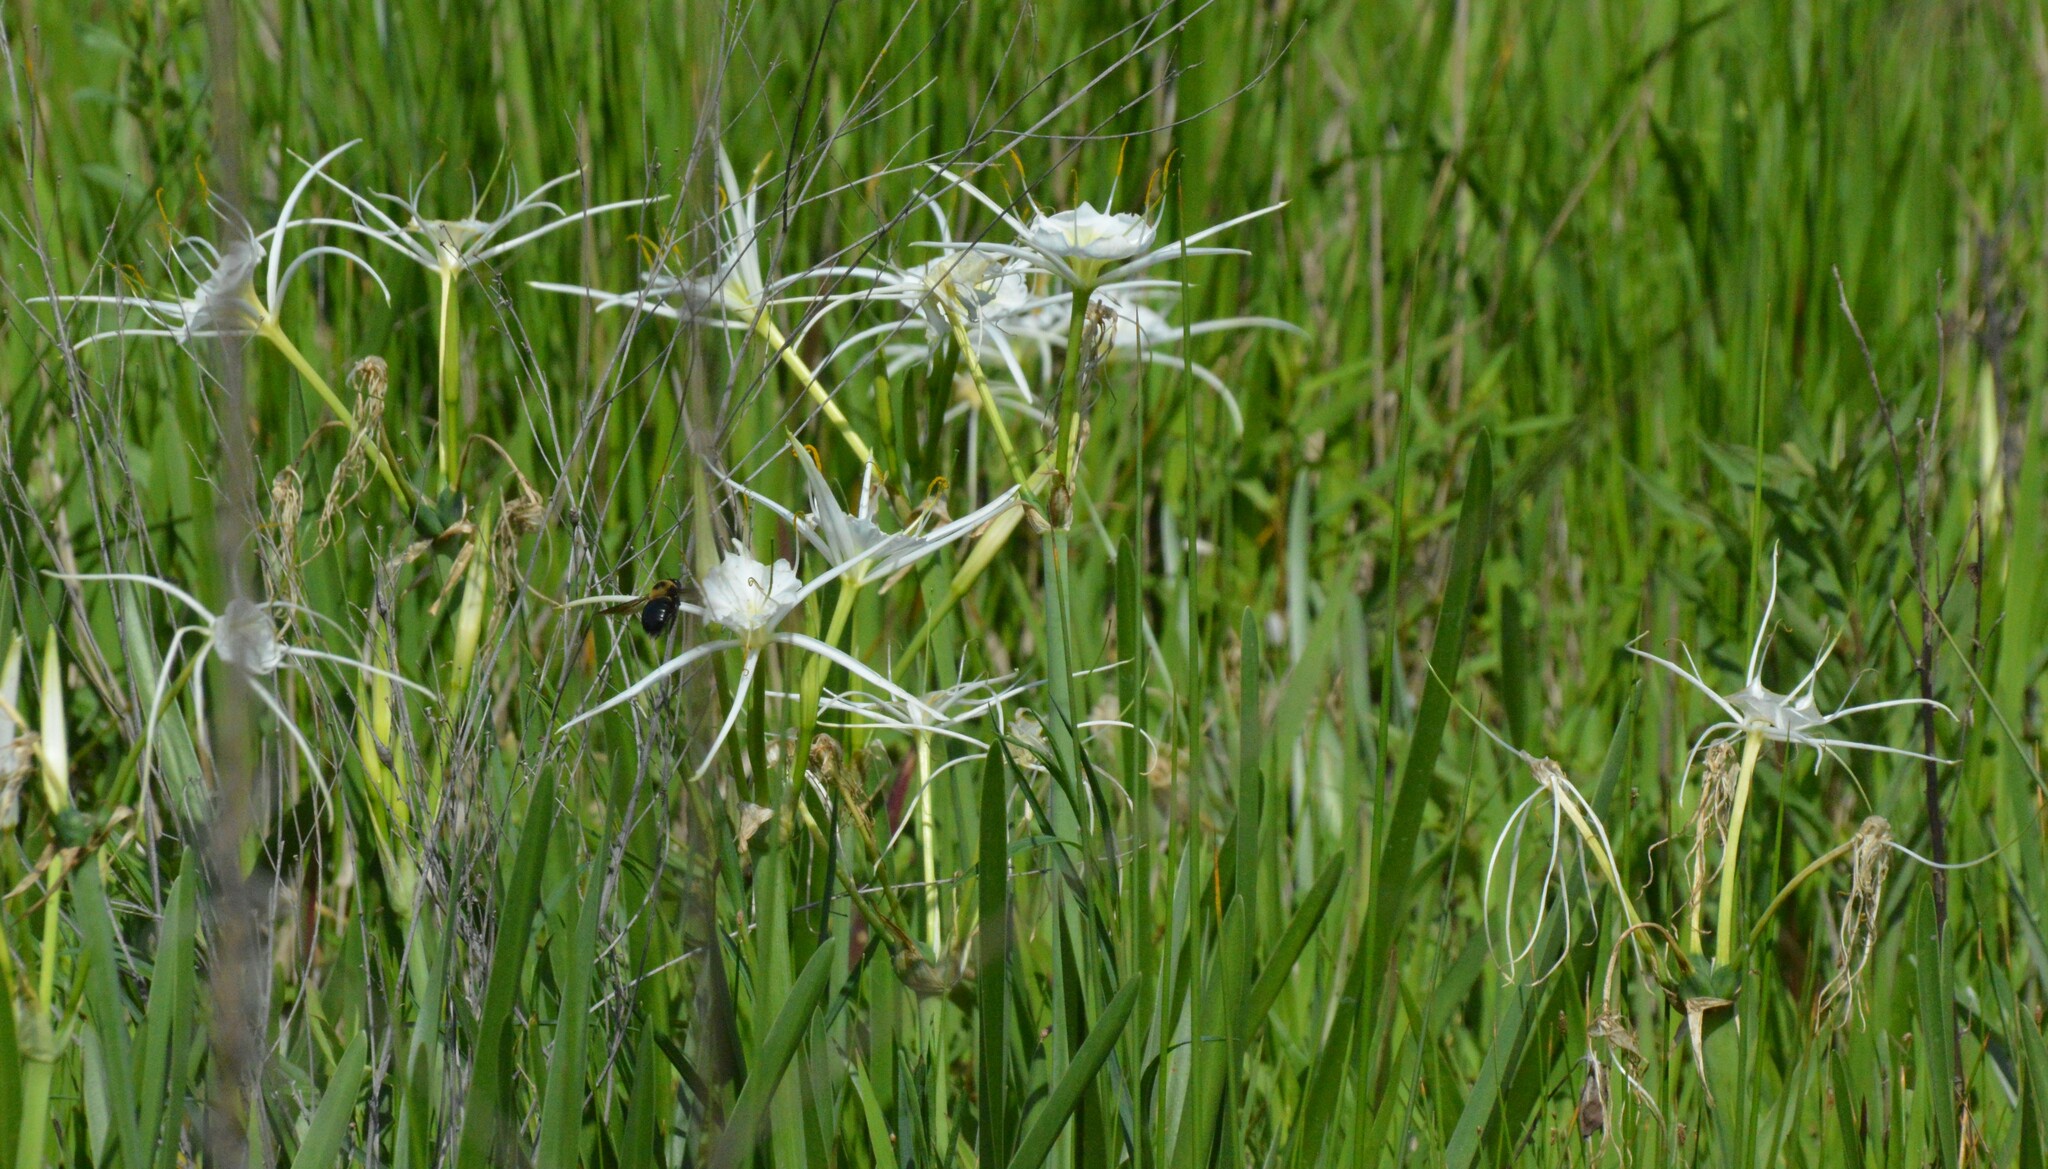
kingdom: Plantae
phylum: Tracheophyta
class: Liliopsida
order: Asparagales
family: Amaryllidaceae
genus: Hymenocallis
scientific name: Hymenocallis liriosme
